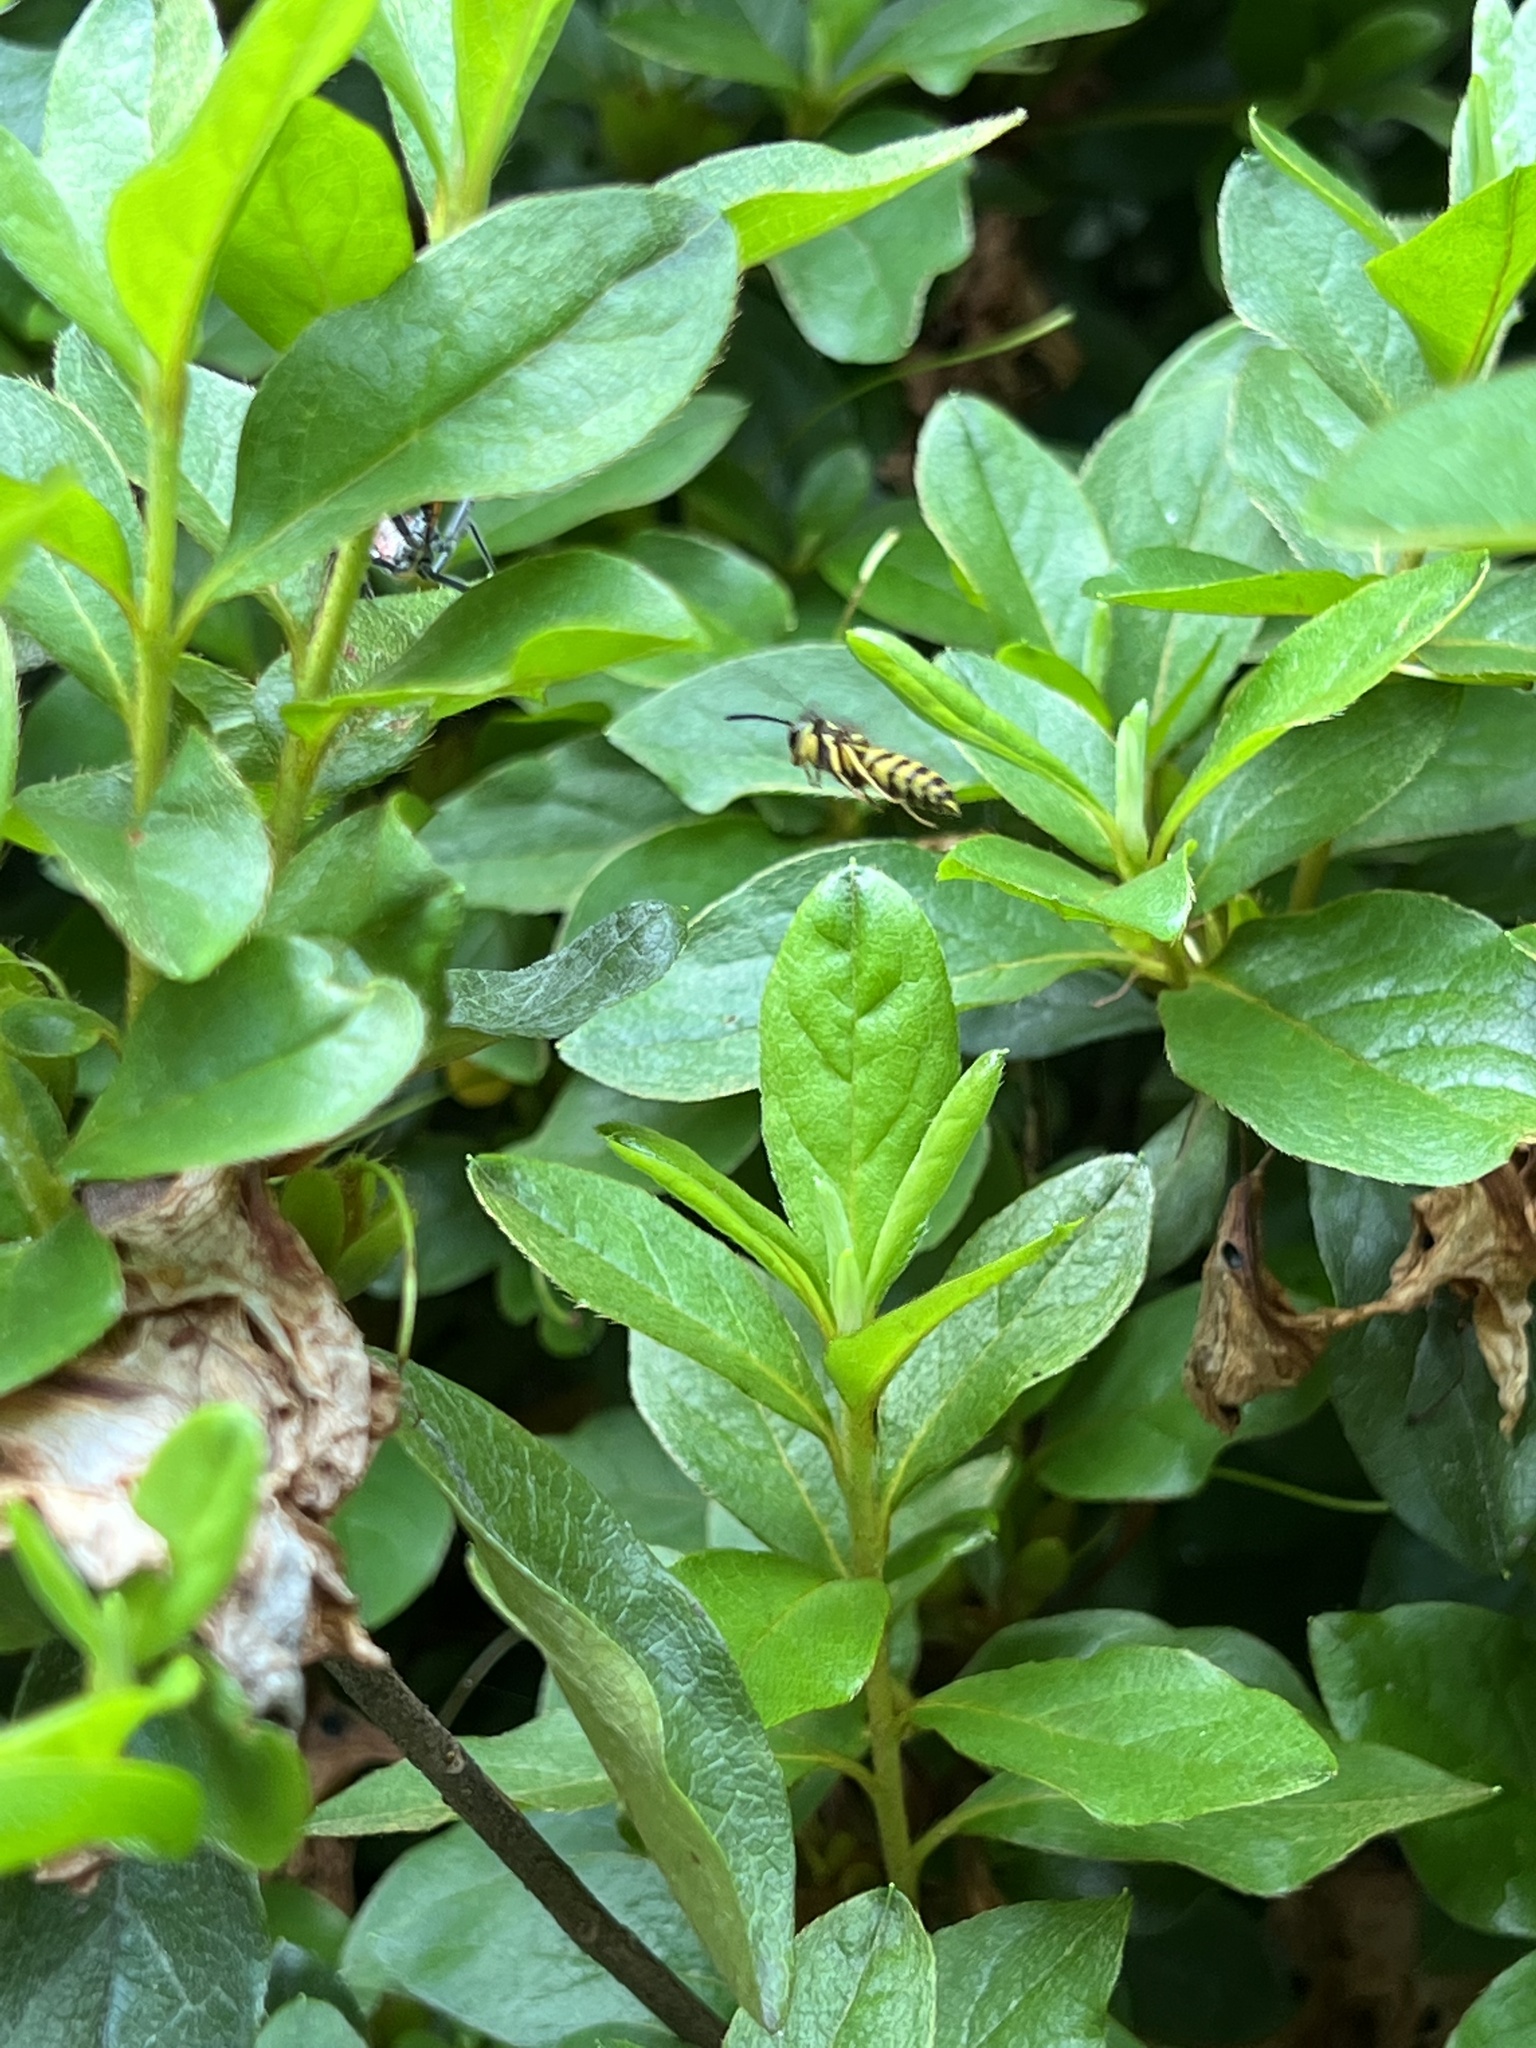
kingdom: Animalia
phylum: Arthropoda
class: Insecta
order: Hymenoptera
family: Vespidae
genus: Vespula
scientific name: Vespula maculifrons
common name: Eastern yellowjacket
